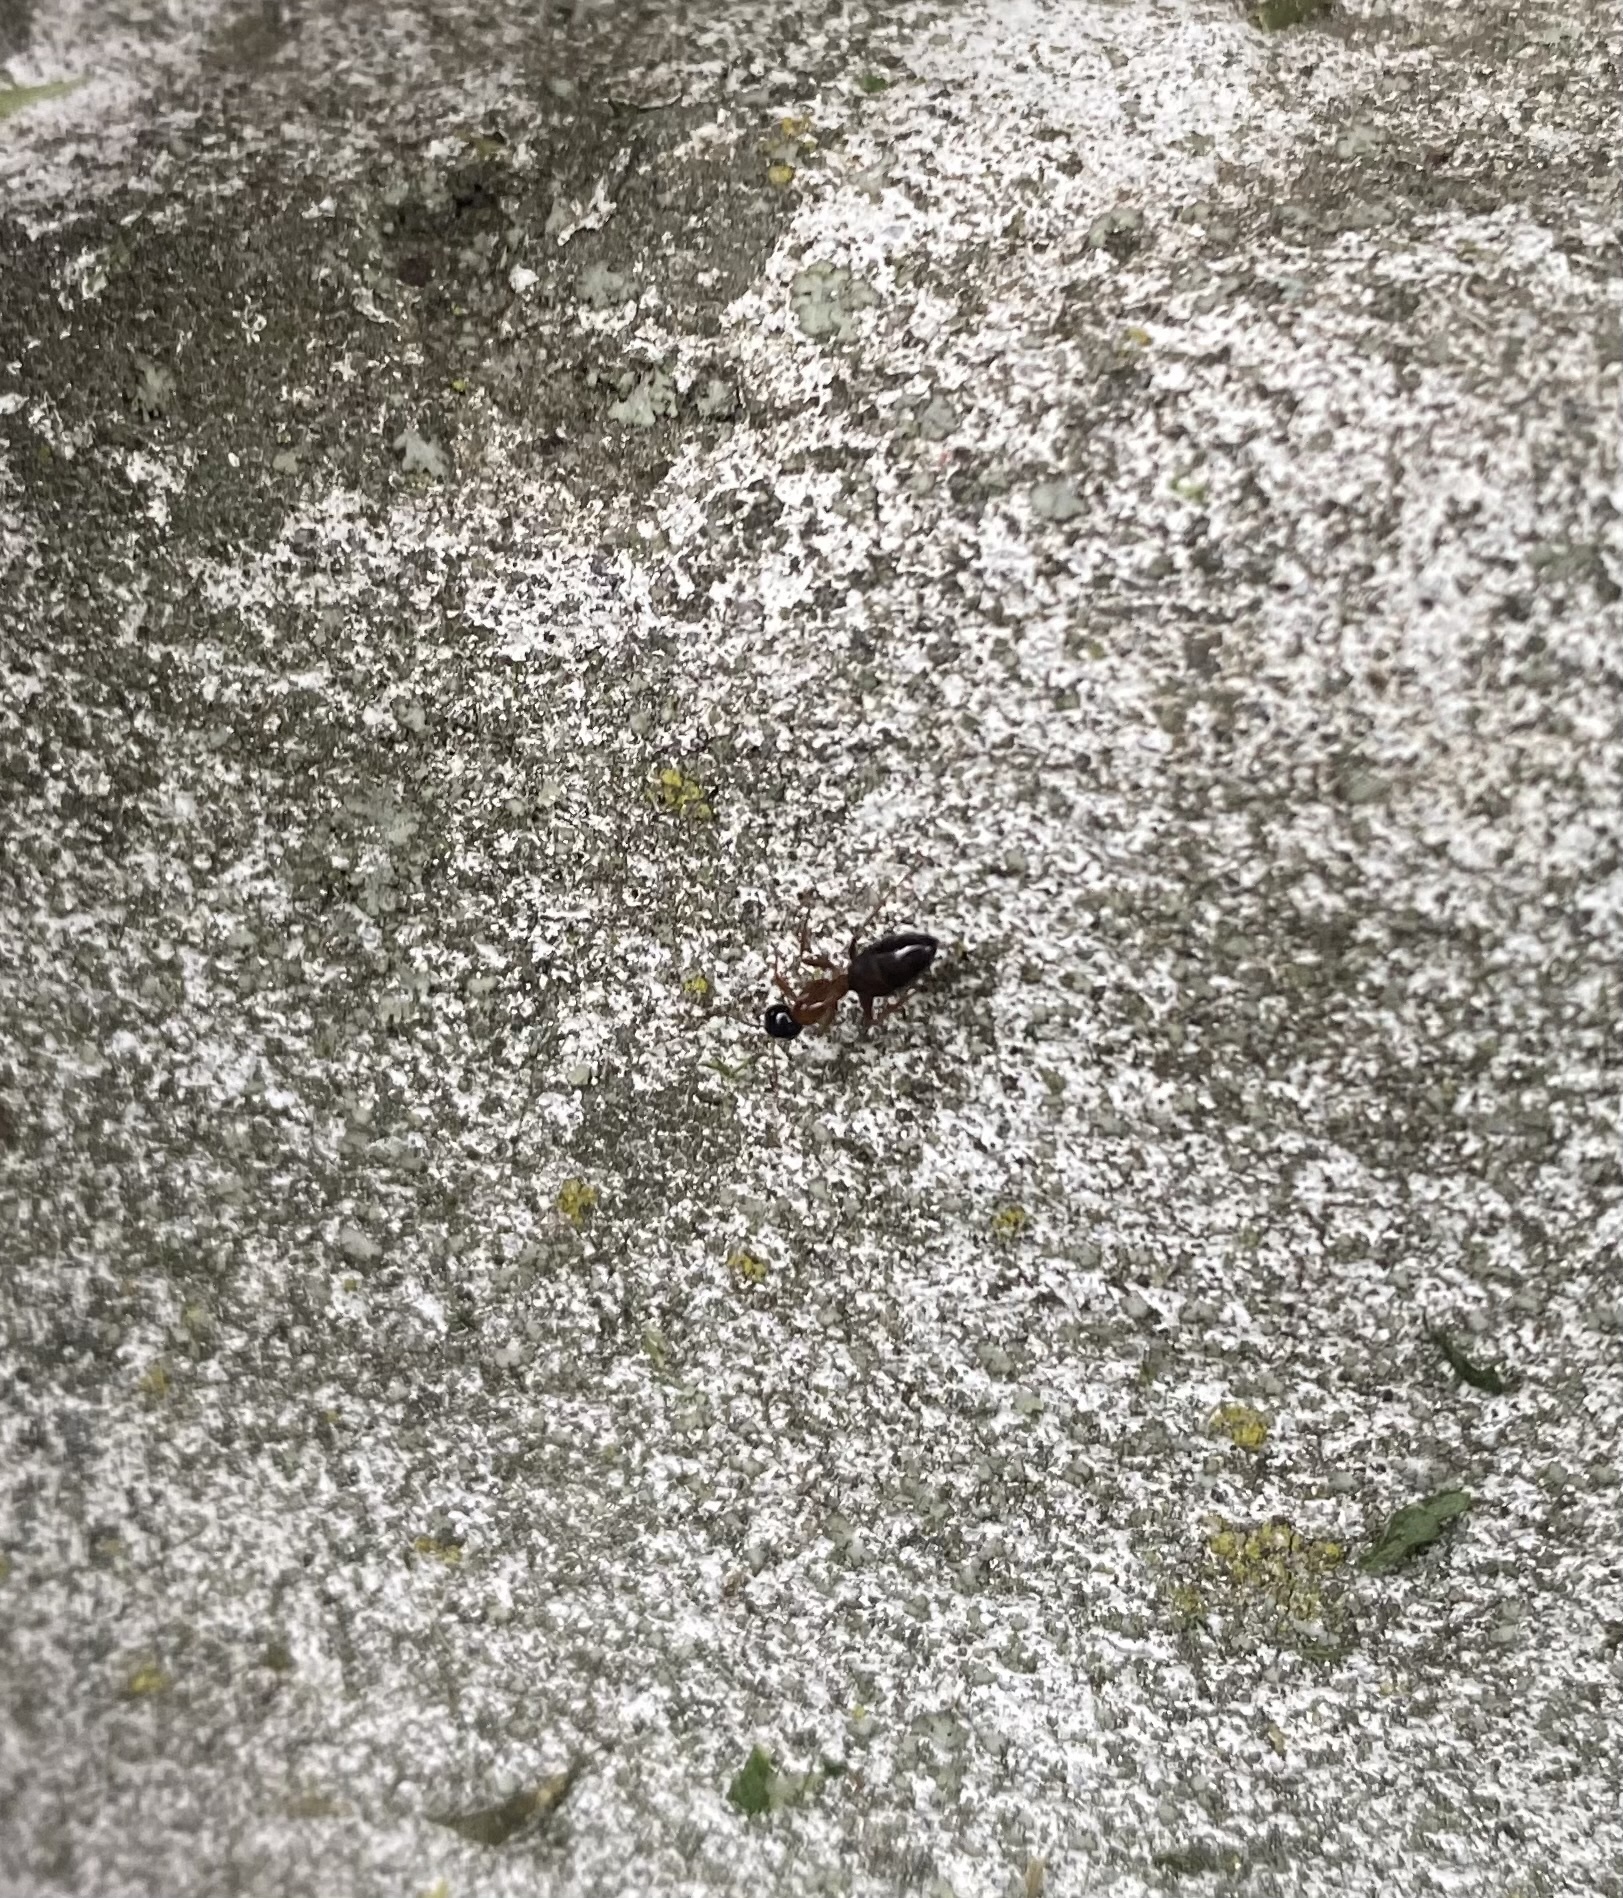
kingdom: Animalia
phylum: Arthropoda
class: Insecta
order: Hymenoptera
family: Formicidae
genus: Camponotus
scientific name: Camponotus fallax
